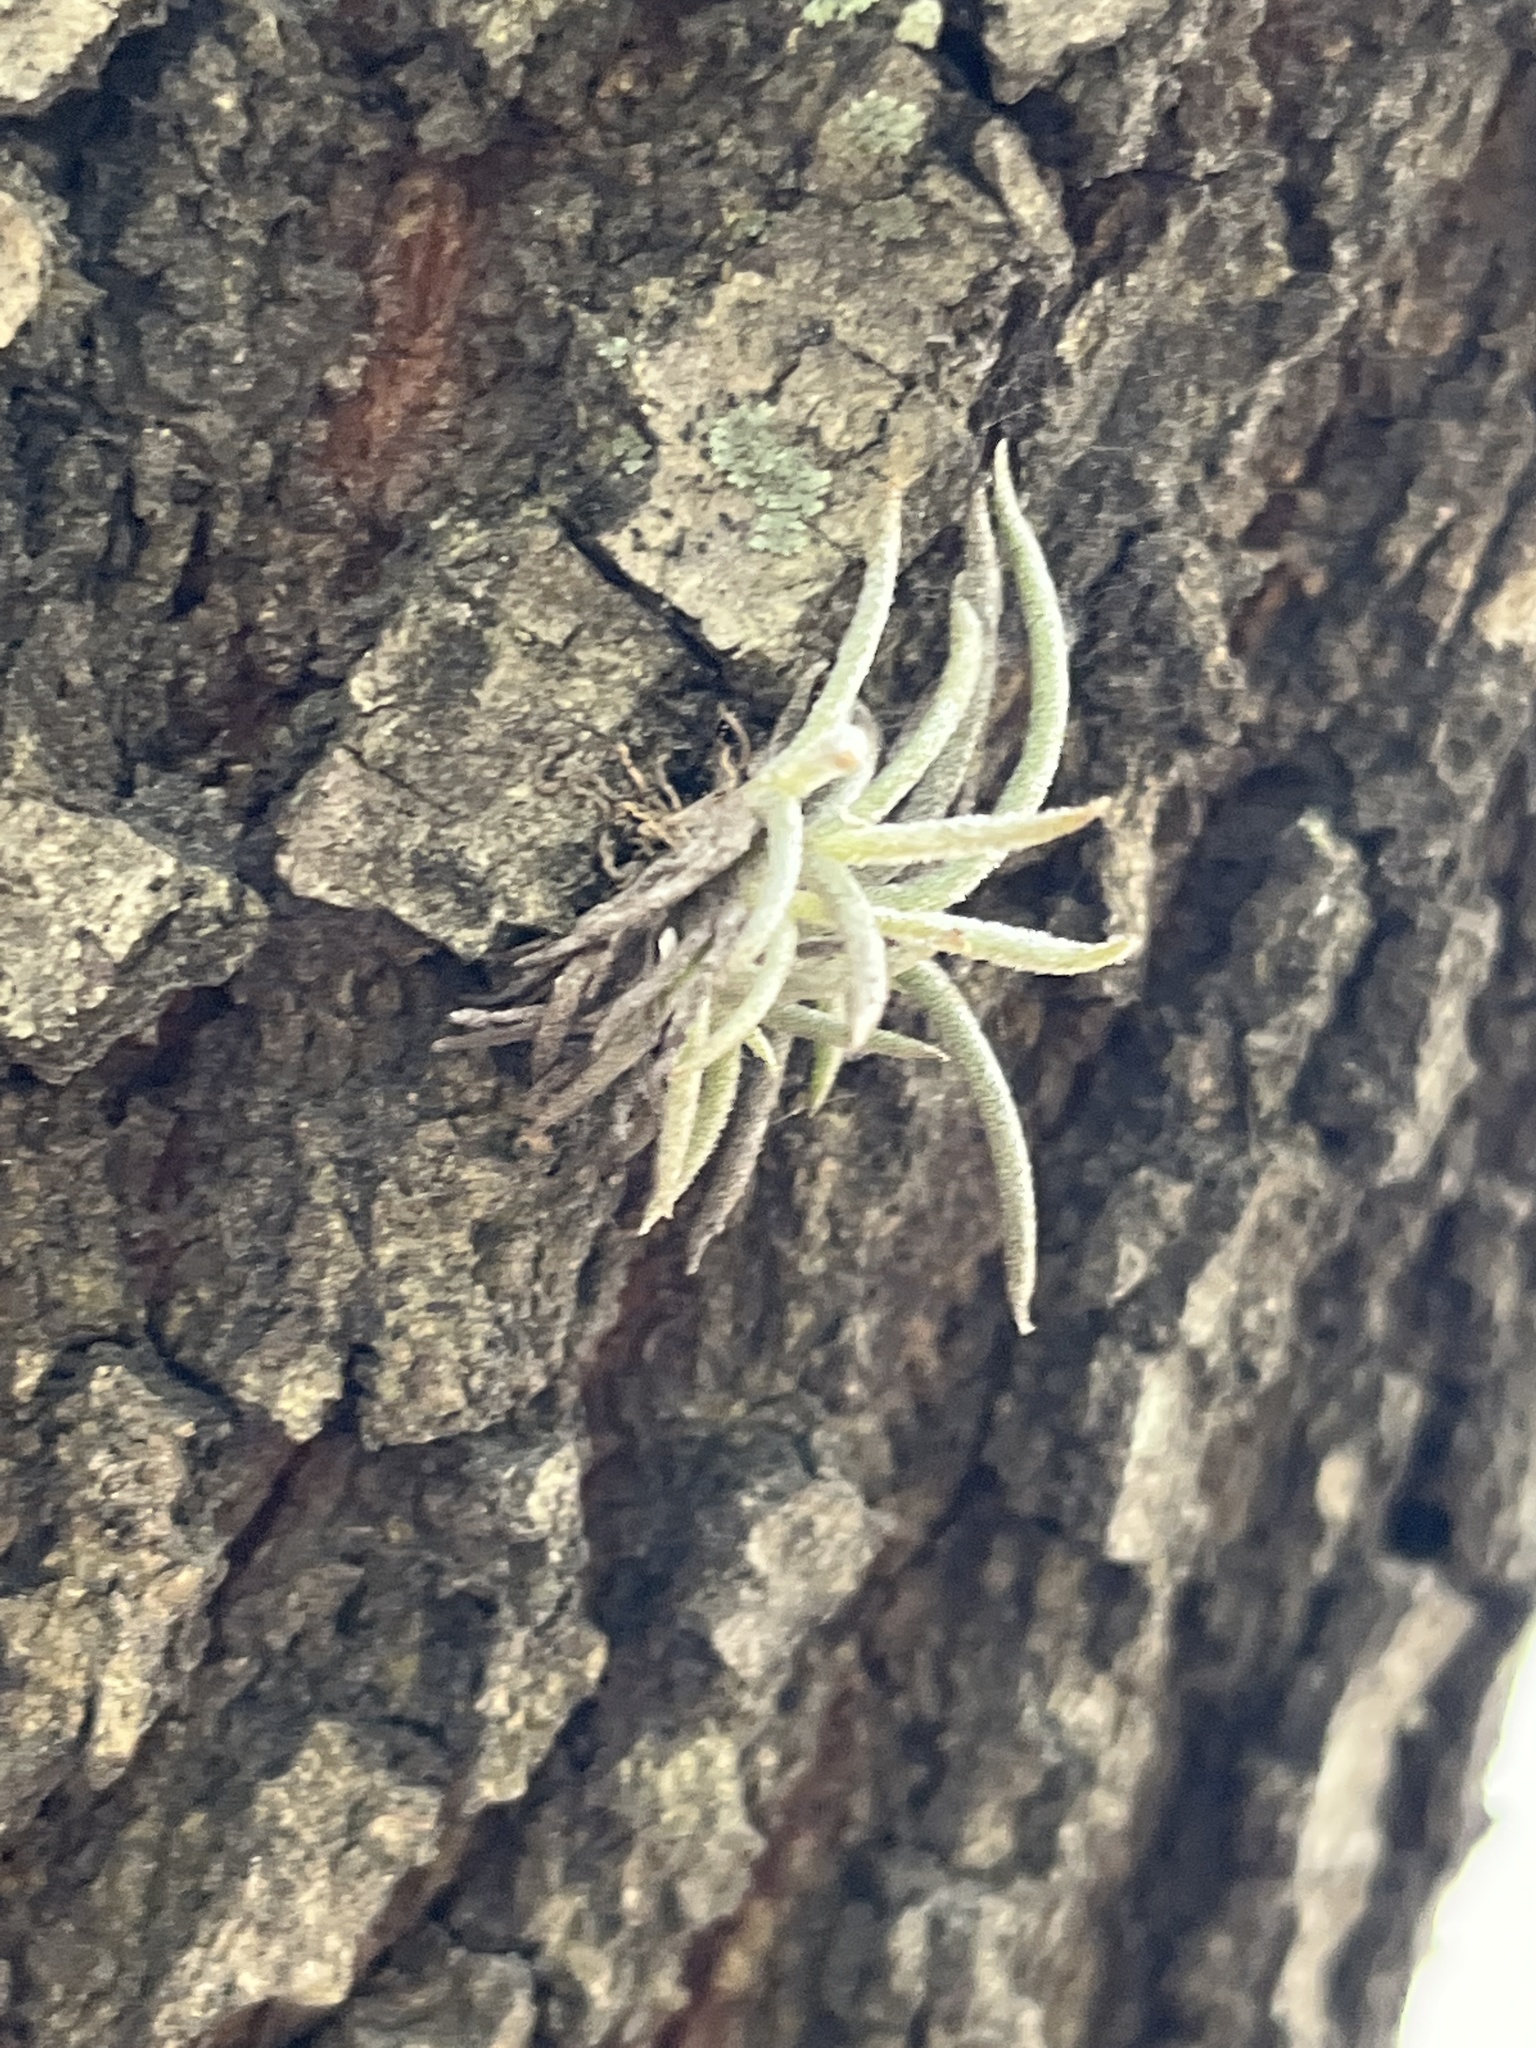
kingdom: Plantae
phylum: Tracheophyta
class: Liliopsida
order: Poales
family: Bromeliaceae
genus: Tillandsia
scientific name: Tillandsia recurvata
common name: Small ballmoss
